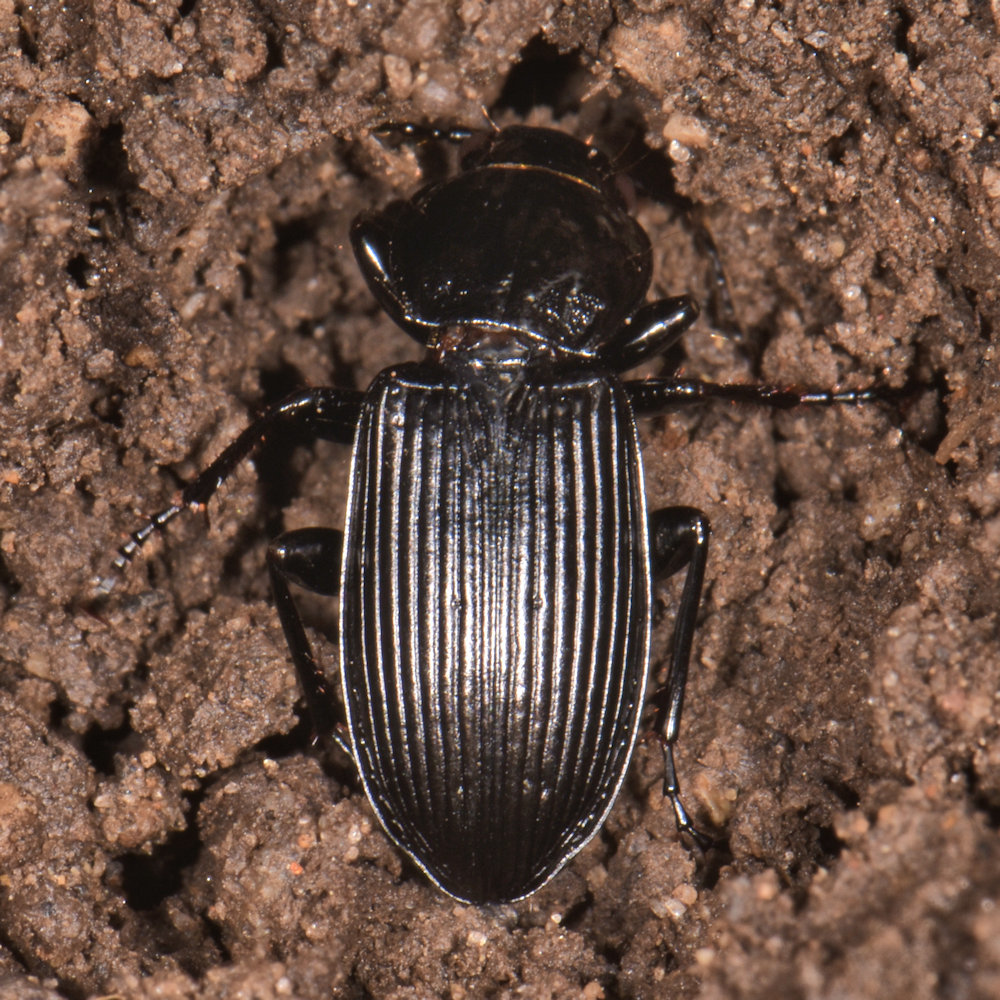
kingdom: Animalia
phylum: Arthropoda
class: Insecta
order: Coleoptera
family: Carabidae
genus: Pterostichus
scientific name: Pterostichus melanarius
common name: European dark harp ground beetle
